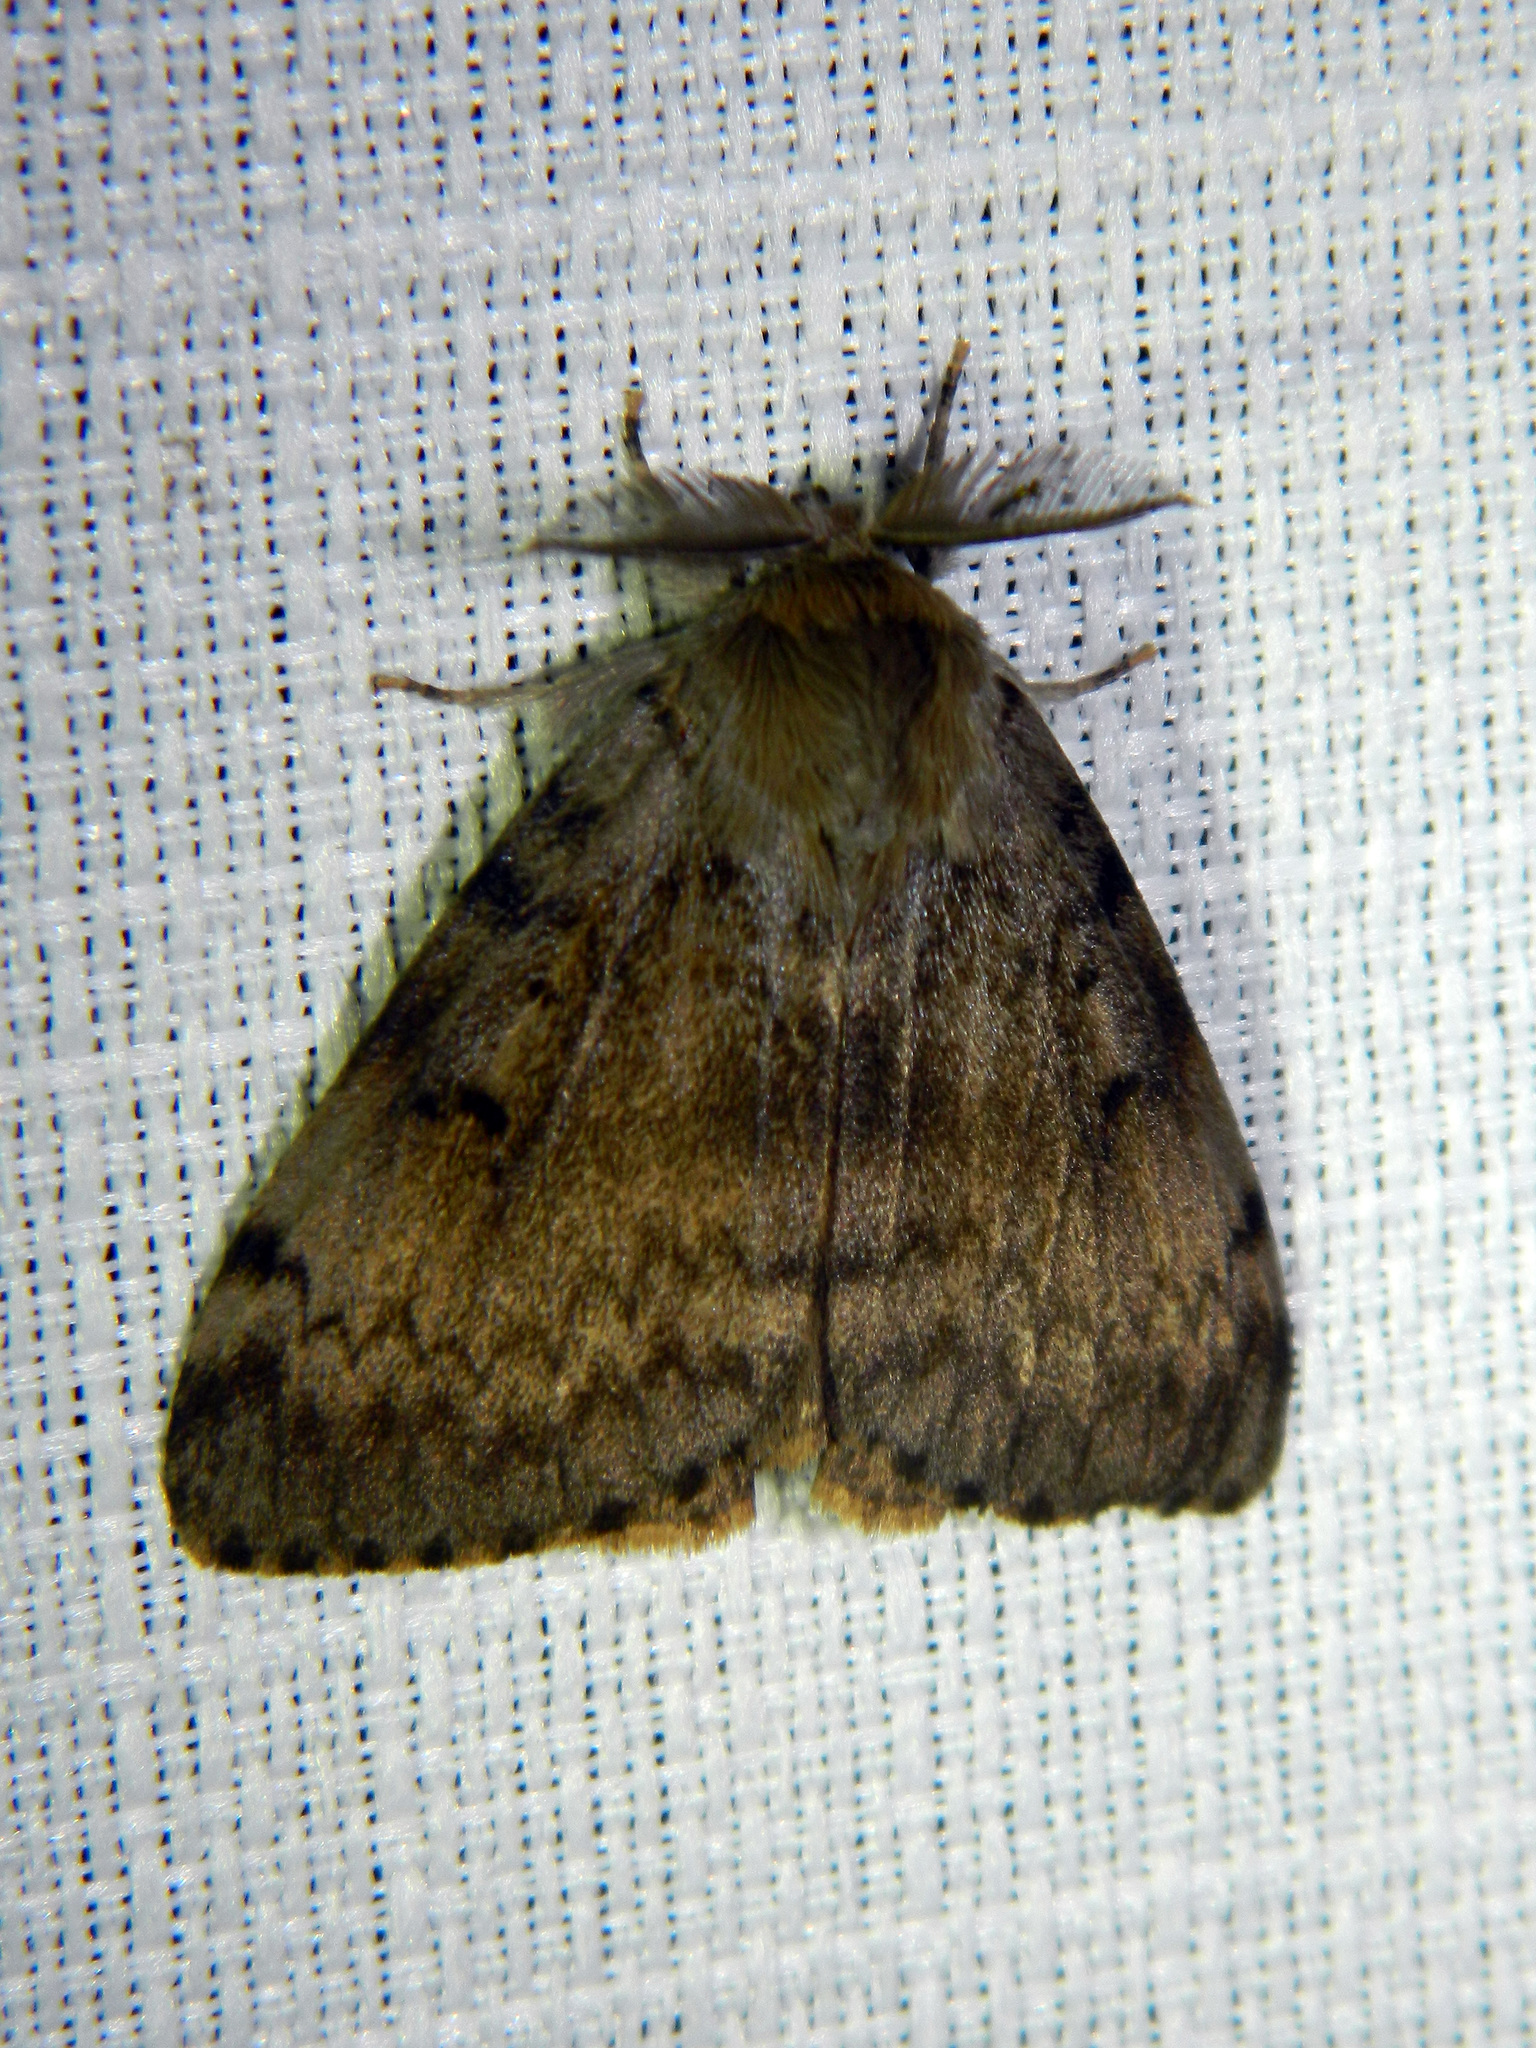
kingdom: Animalia
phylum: Arthropoda
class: Insecta
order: Lepidoptera
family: Erebidae
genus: Lymantria
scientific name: Lymantria dispar
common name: Gypsy moth
